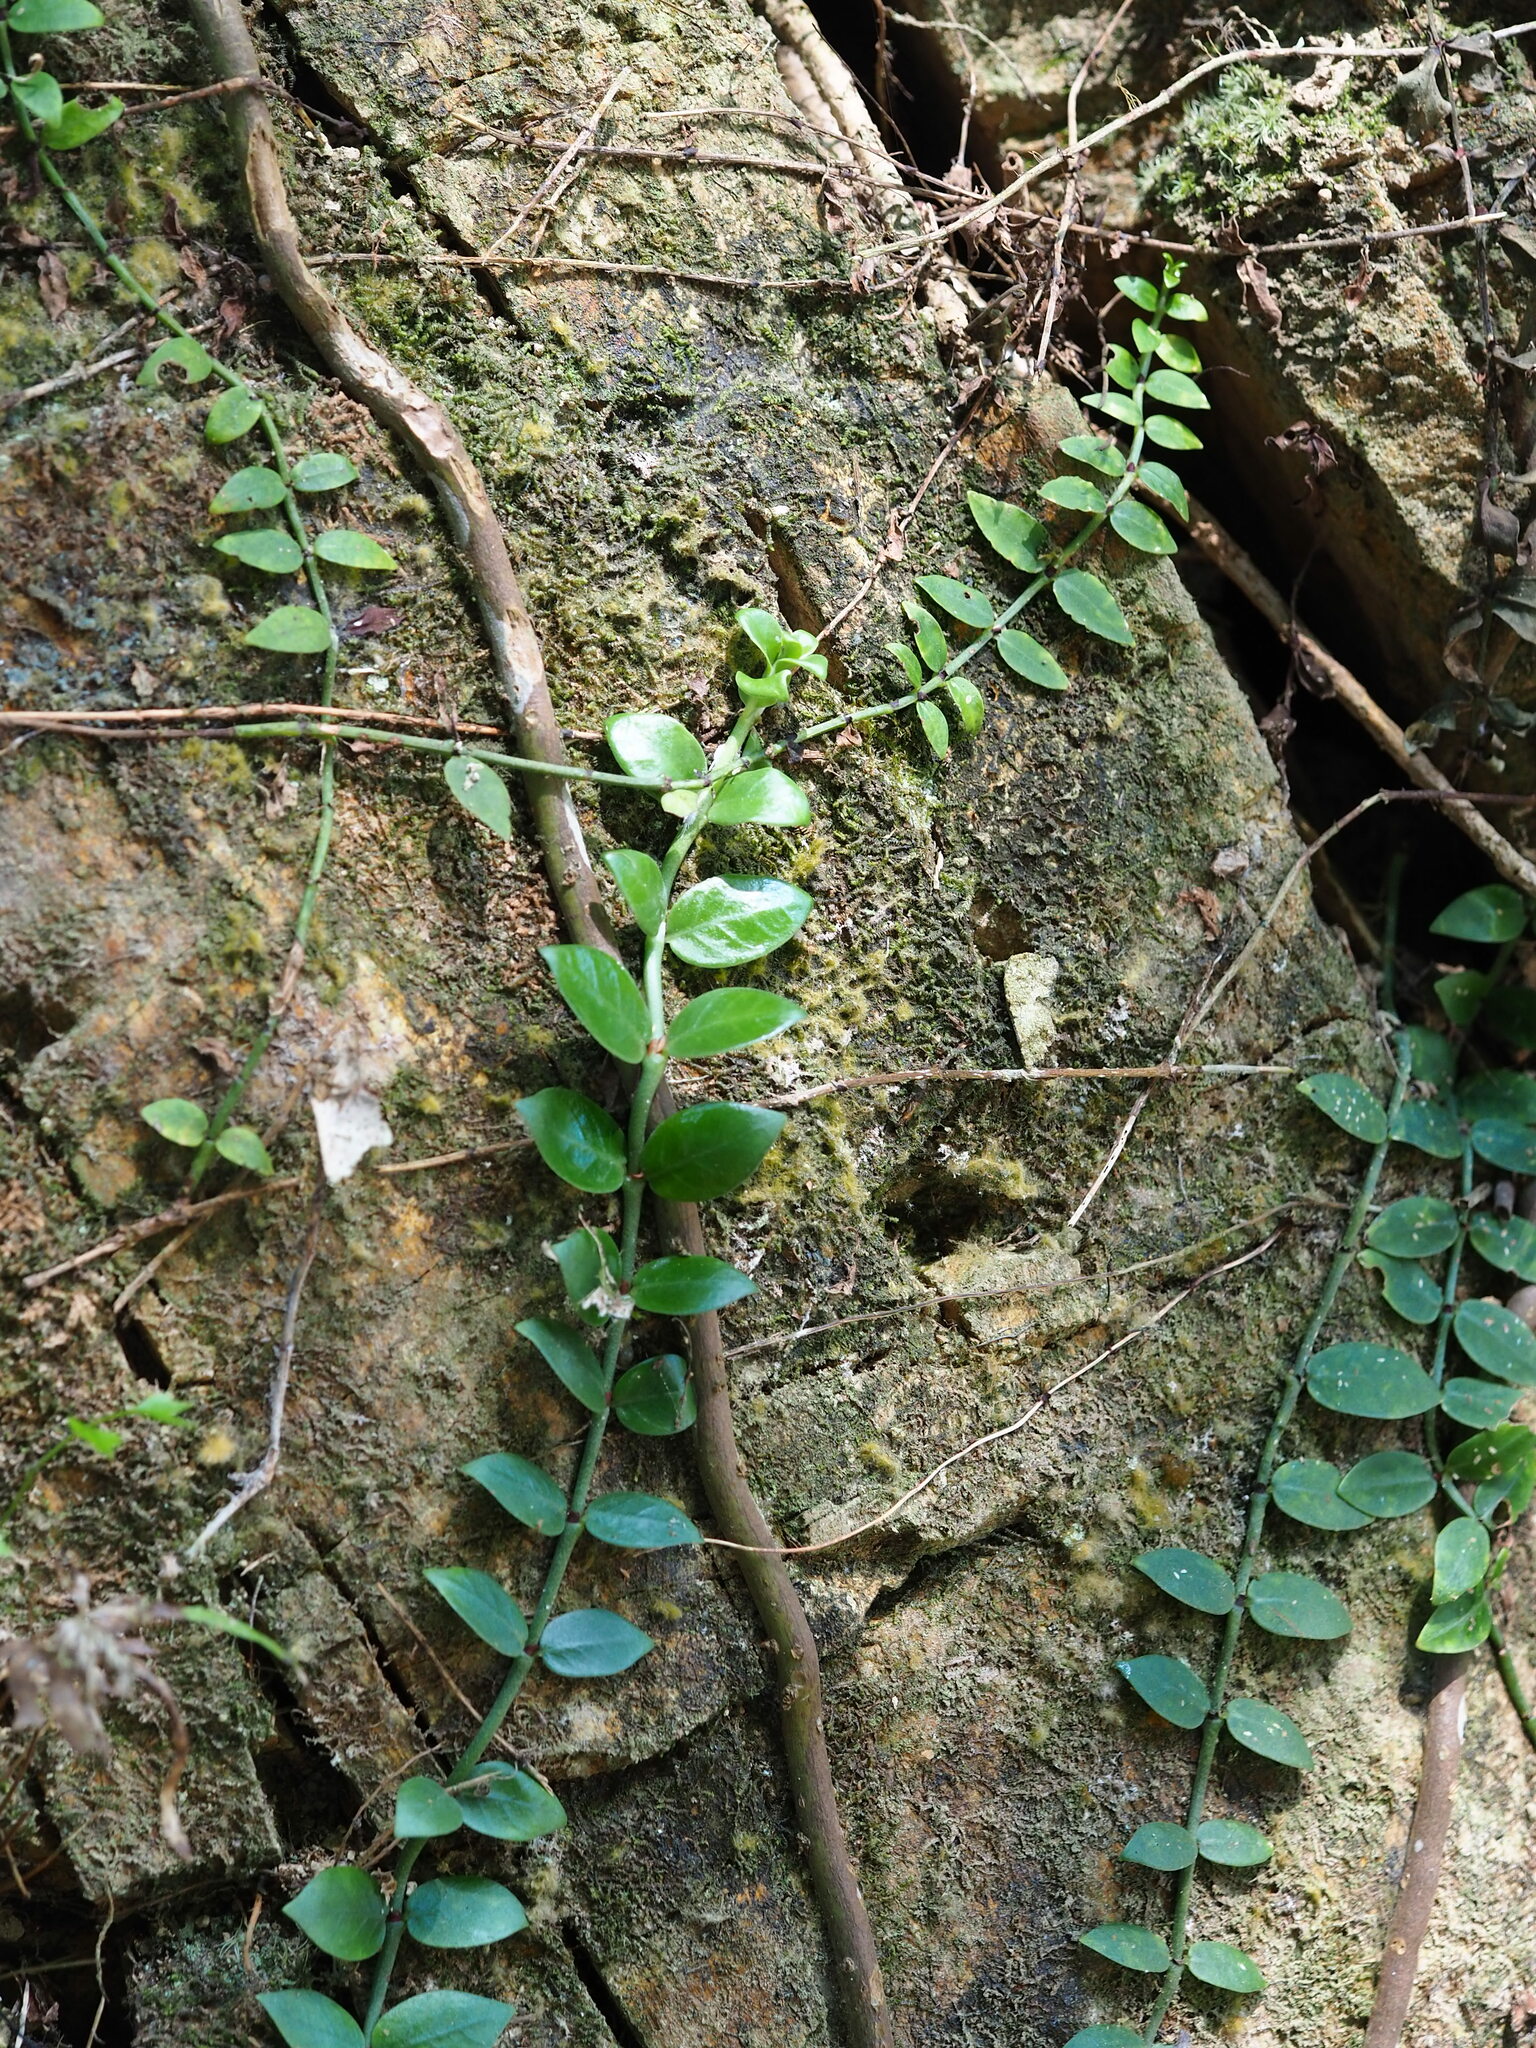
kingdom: Plantae
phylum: Tracheophyta
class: Magnoliopsida
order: Gentianales
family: Rubiaceae
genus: Psychotria
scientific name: Psychotria serpens
